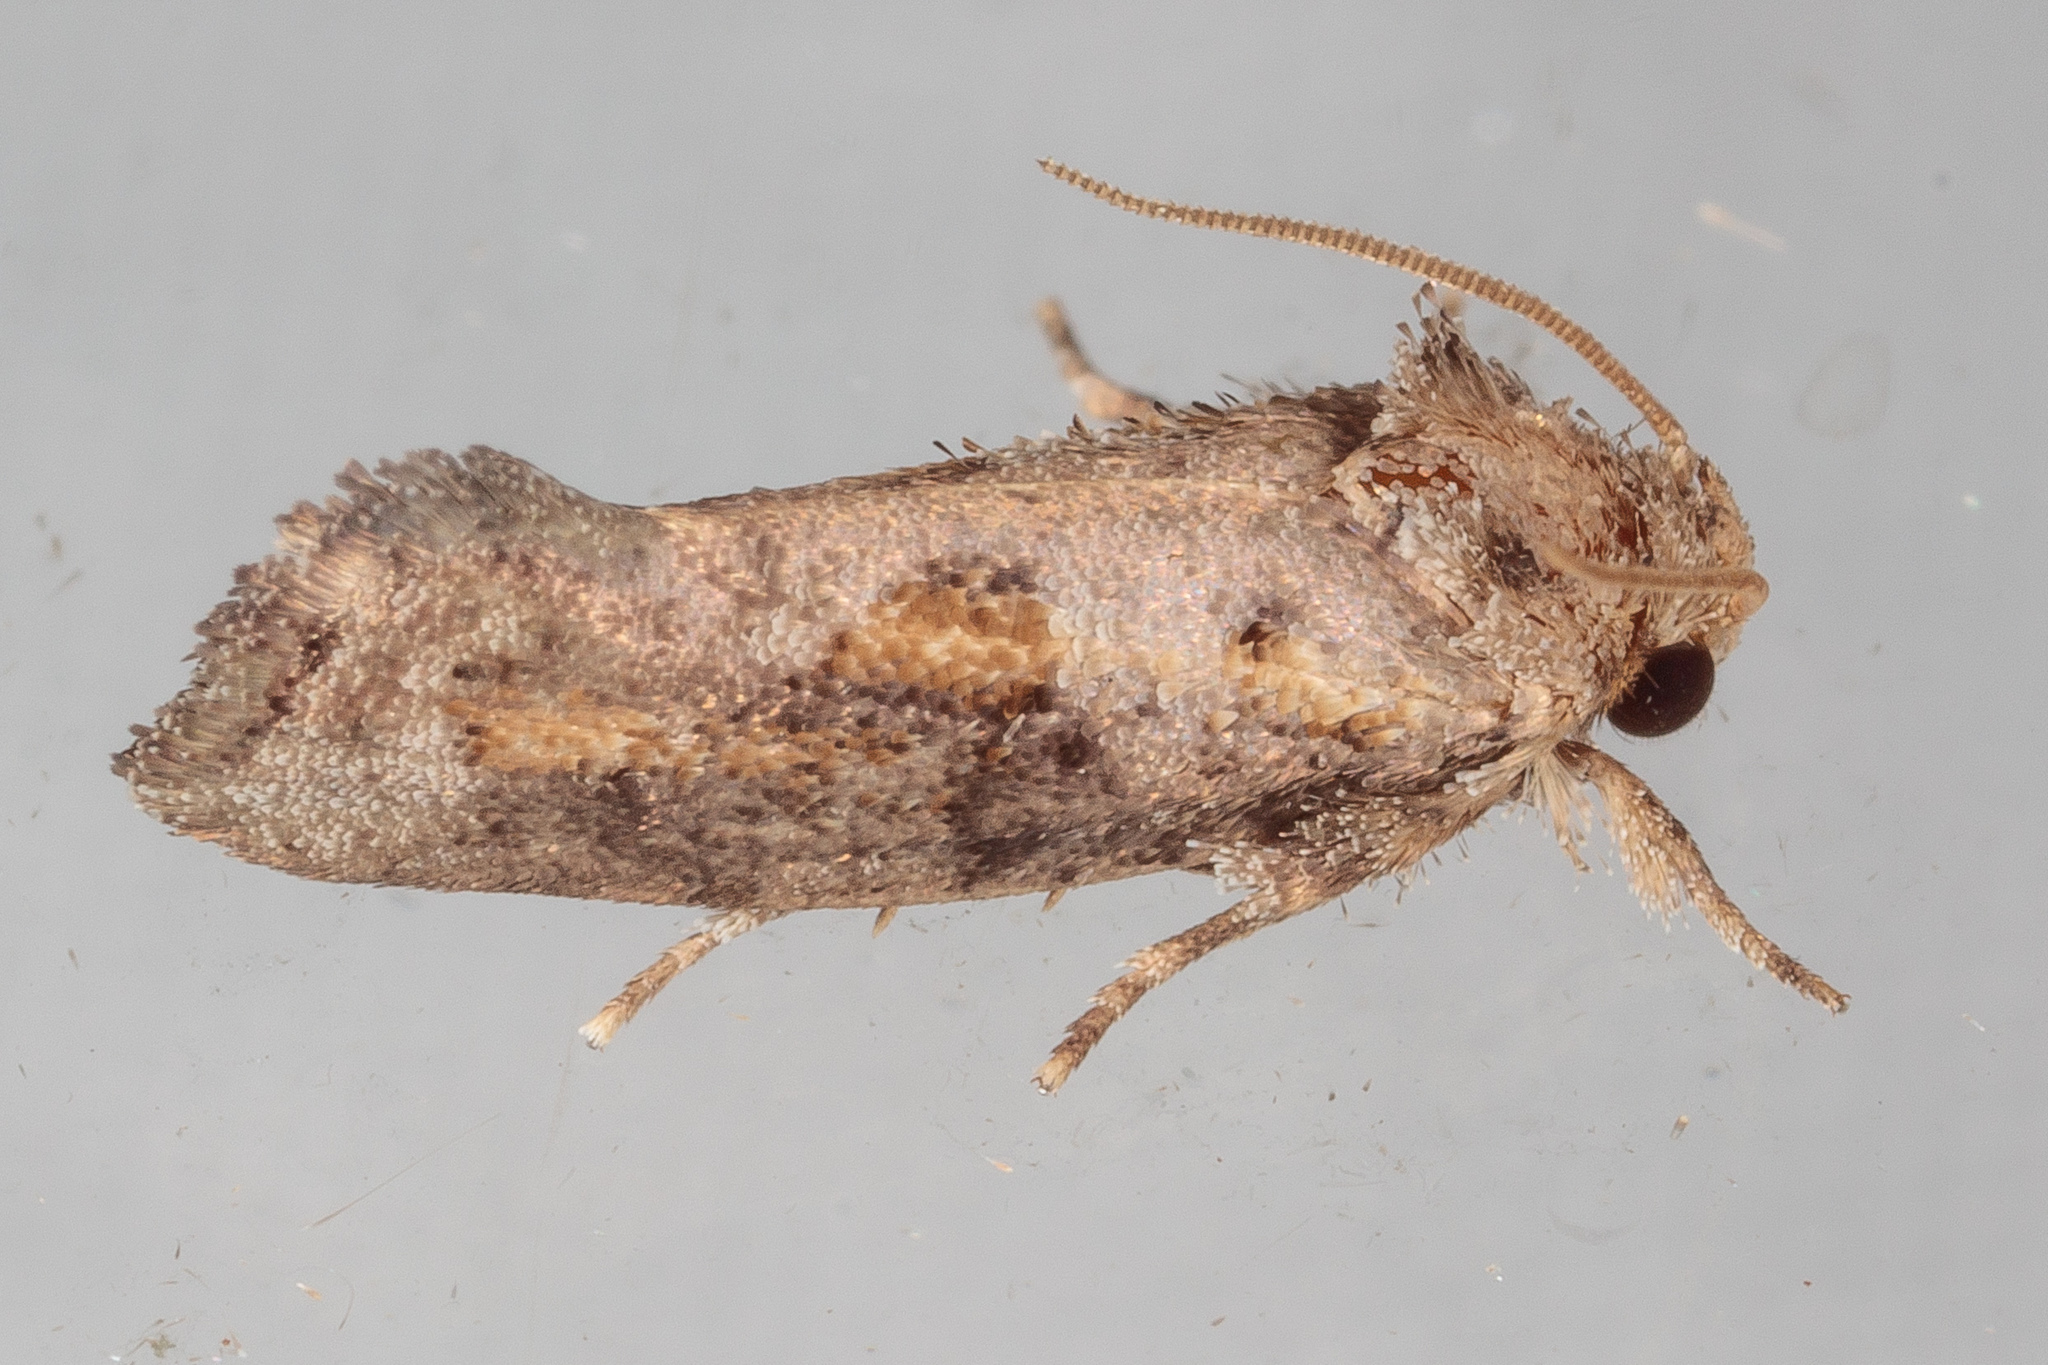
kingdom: Animalia
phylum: Arthropoda
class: Insecta
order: Lepidoptera
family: Tineidae
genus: Acrolophus
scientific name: Acrolophus piger
